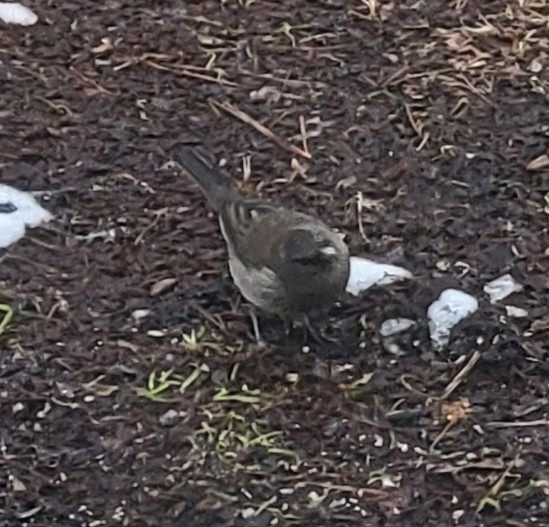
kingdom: Animalia
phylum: Chordata
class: Aves
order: Passeriformes
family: Passerellidae
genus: Junco
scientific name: Junco hyemalis
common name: Dark-eyed junco
